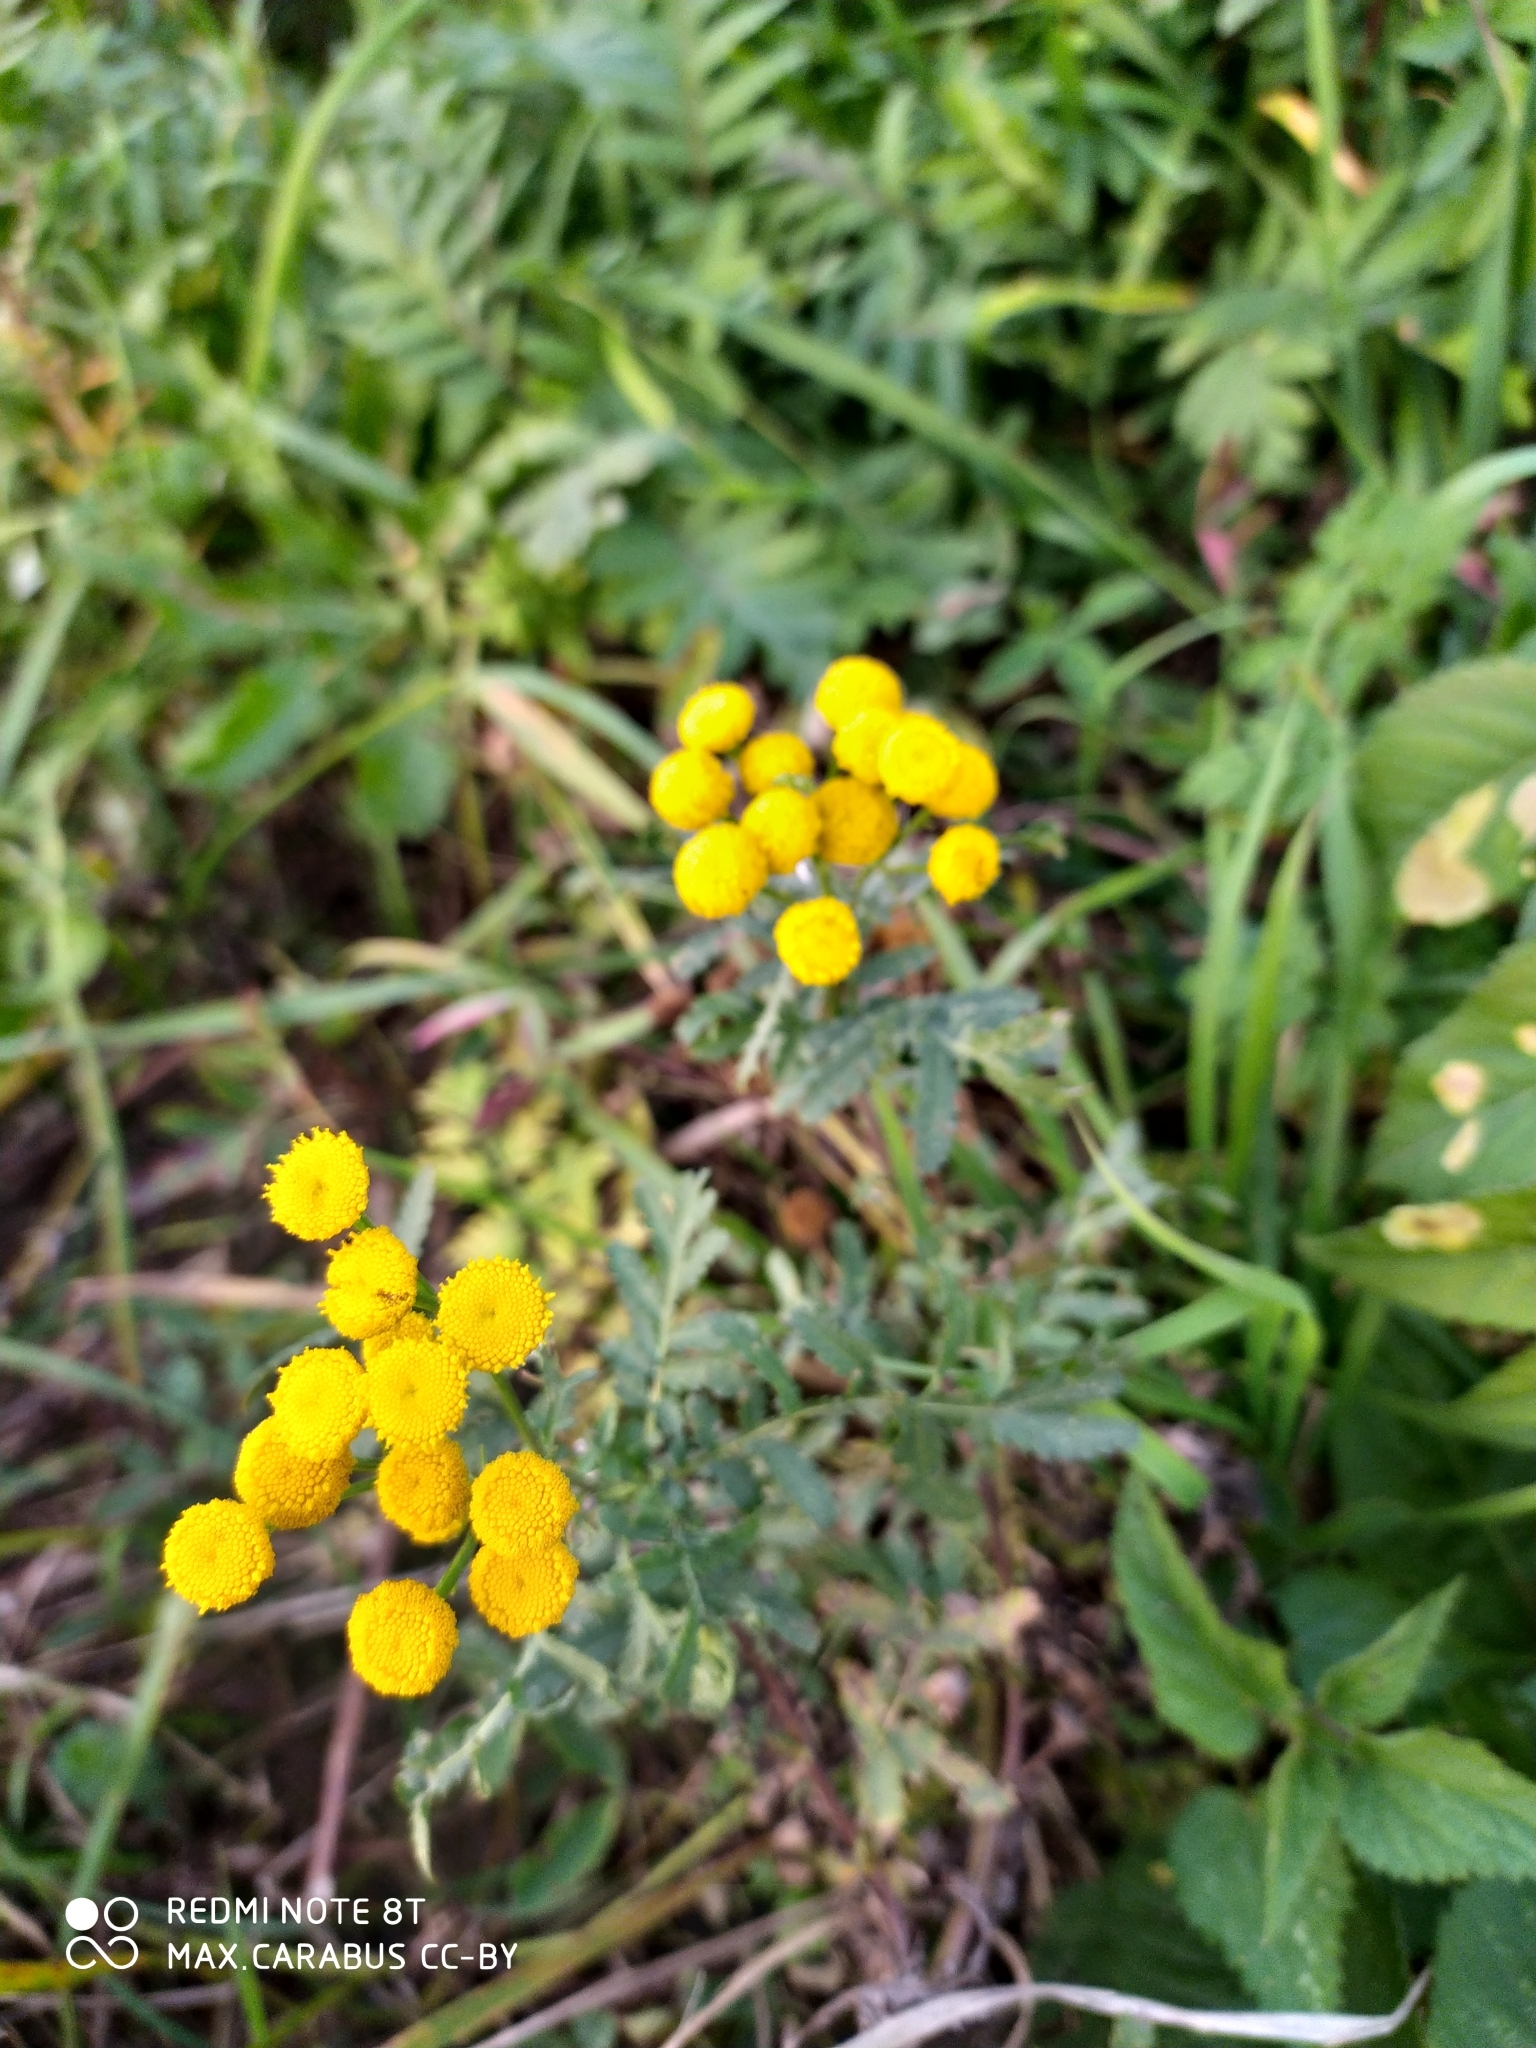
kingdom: Plantae
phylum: Tracheophyta
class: Magnoliopsida
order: Asterales
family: Asteraceae
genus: Tanacetum
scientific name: Tanacetum vulgare
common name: Common tansy
